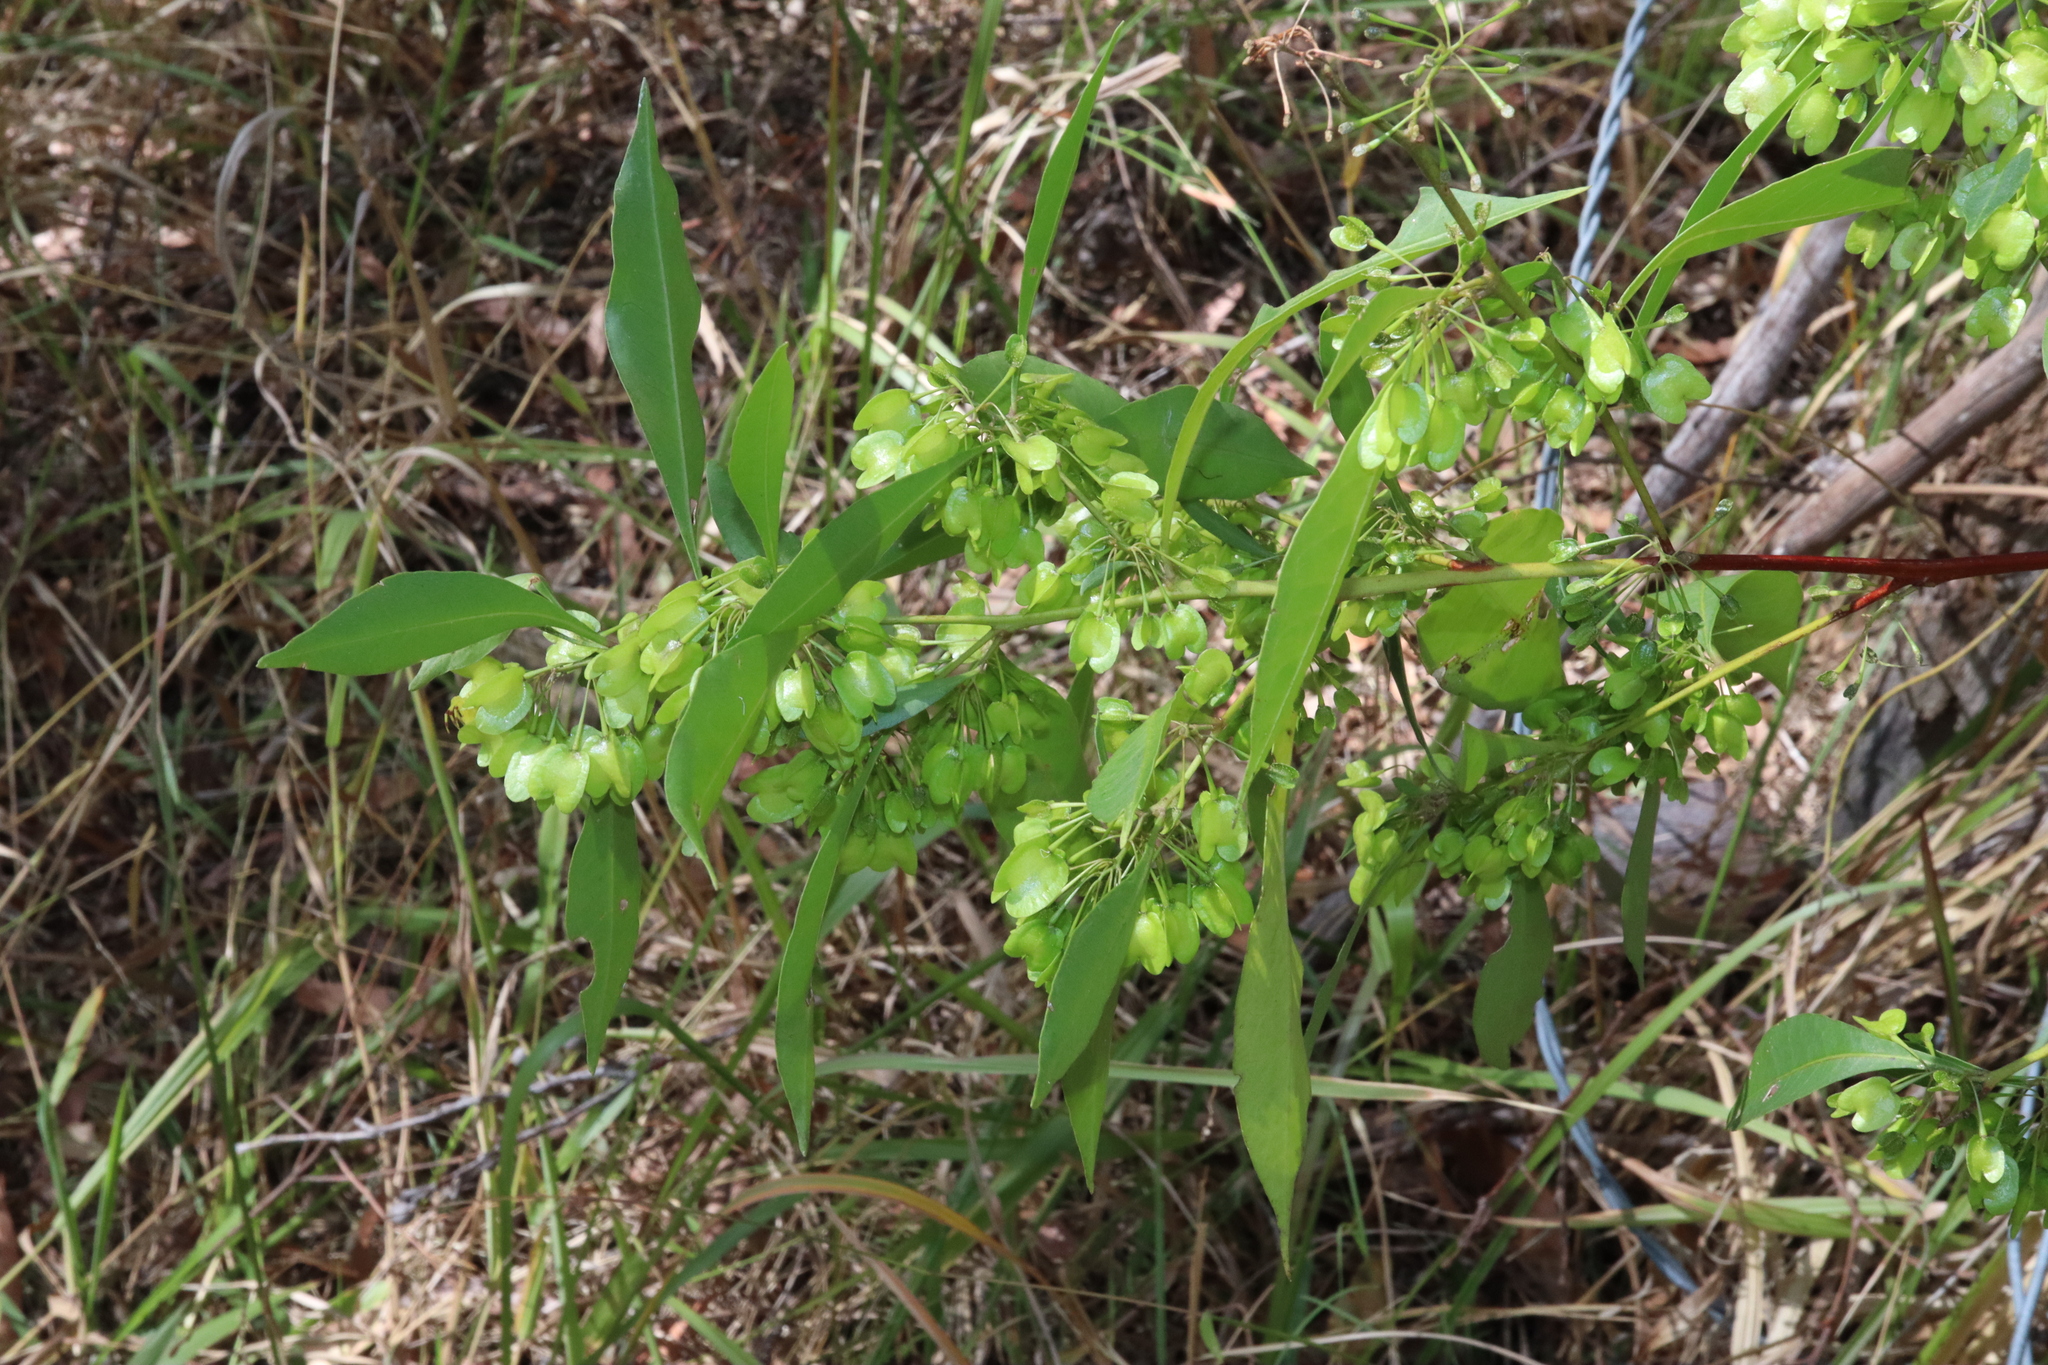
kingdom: Plantae
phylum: Tracheophyta
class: Magnoliopsida
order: Sapindales
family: Sapindaceae
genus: Dodonaea
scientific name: Dodonaea triquetra
